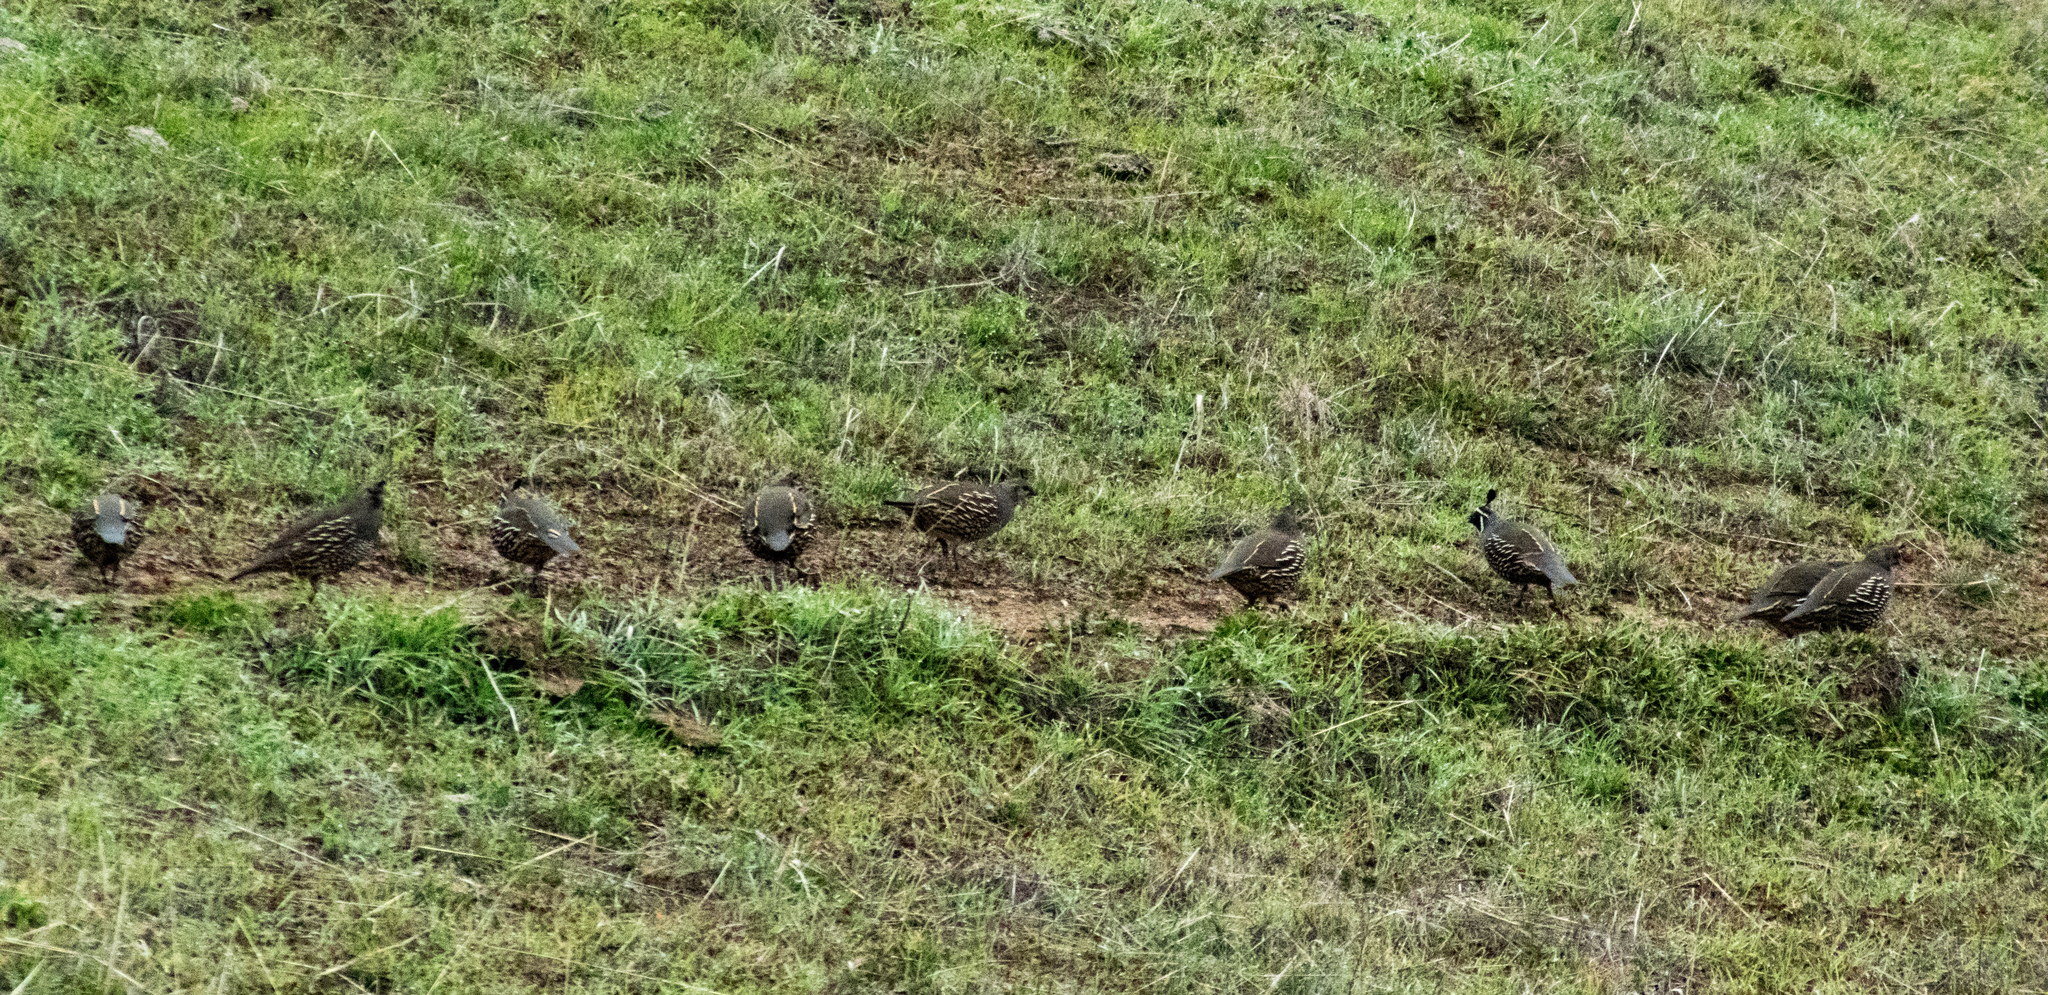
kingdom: Animalia
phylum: Chordata
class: Aves
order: Galliformes
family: Odontophoridae
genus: Callipepla
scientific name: Callipepla californica
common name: California quail
